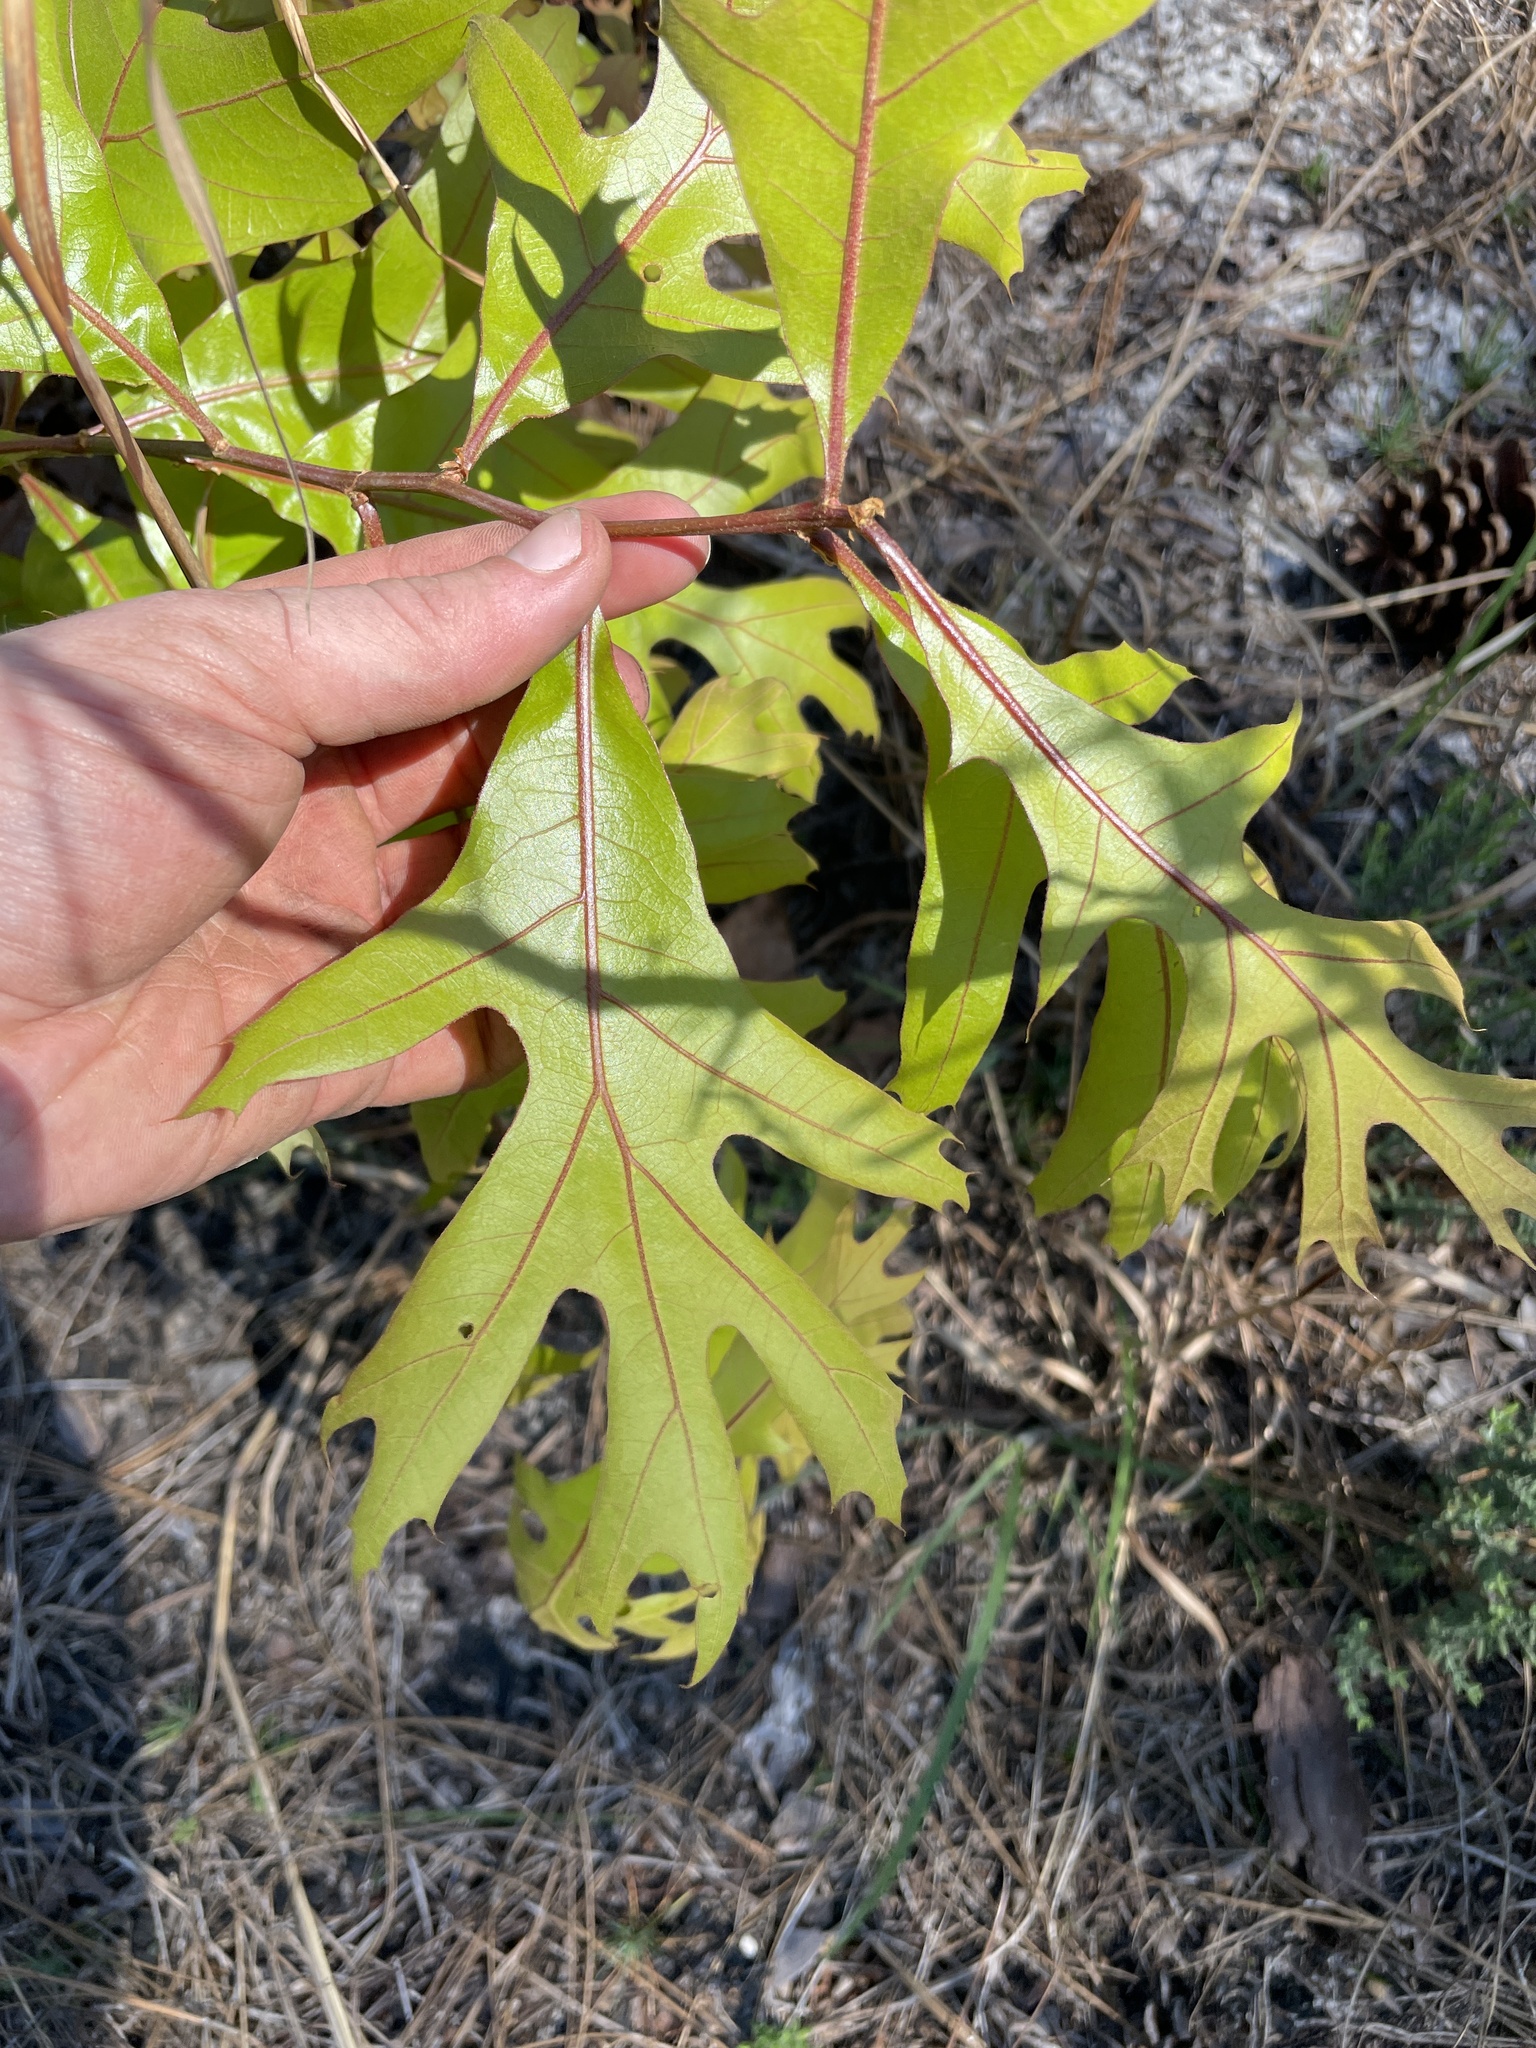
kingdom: Plantae
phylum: Tracheophyta
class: Magnoliopsida
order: Fagales
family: Fagaceae
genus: Quercus
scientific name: Quercus laevis
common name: Turkey oak
